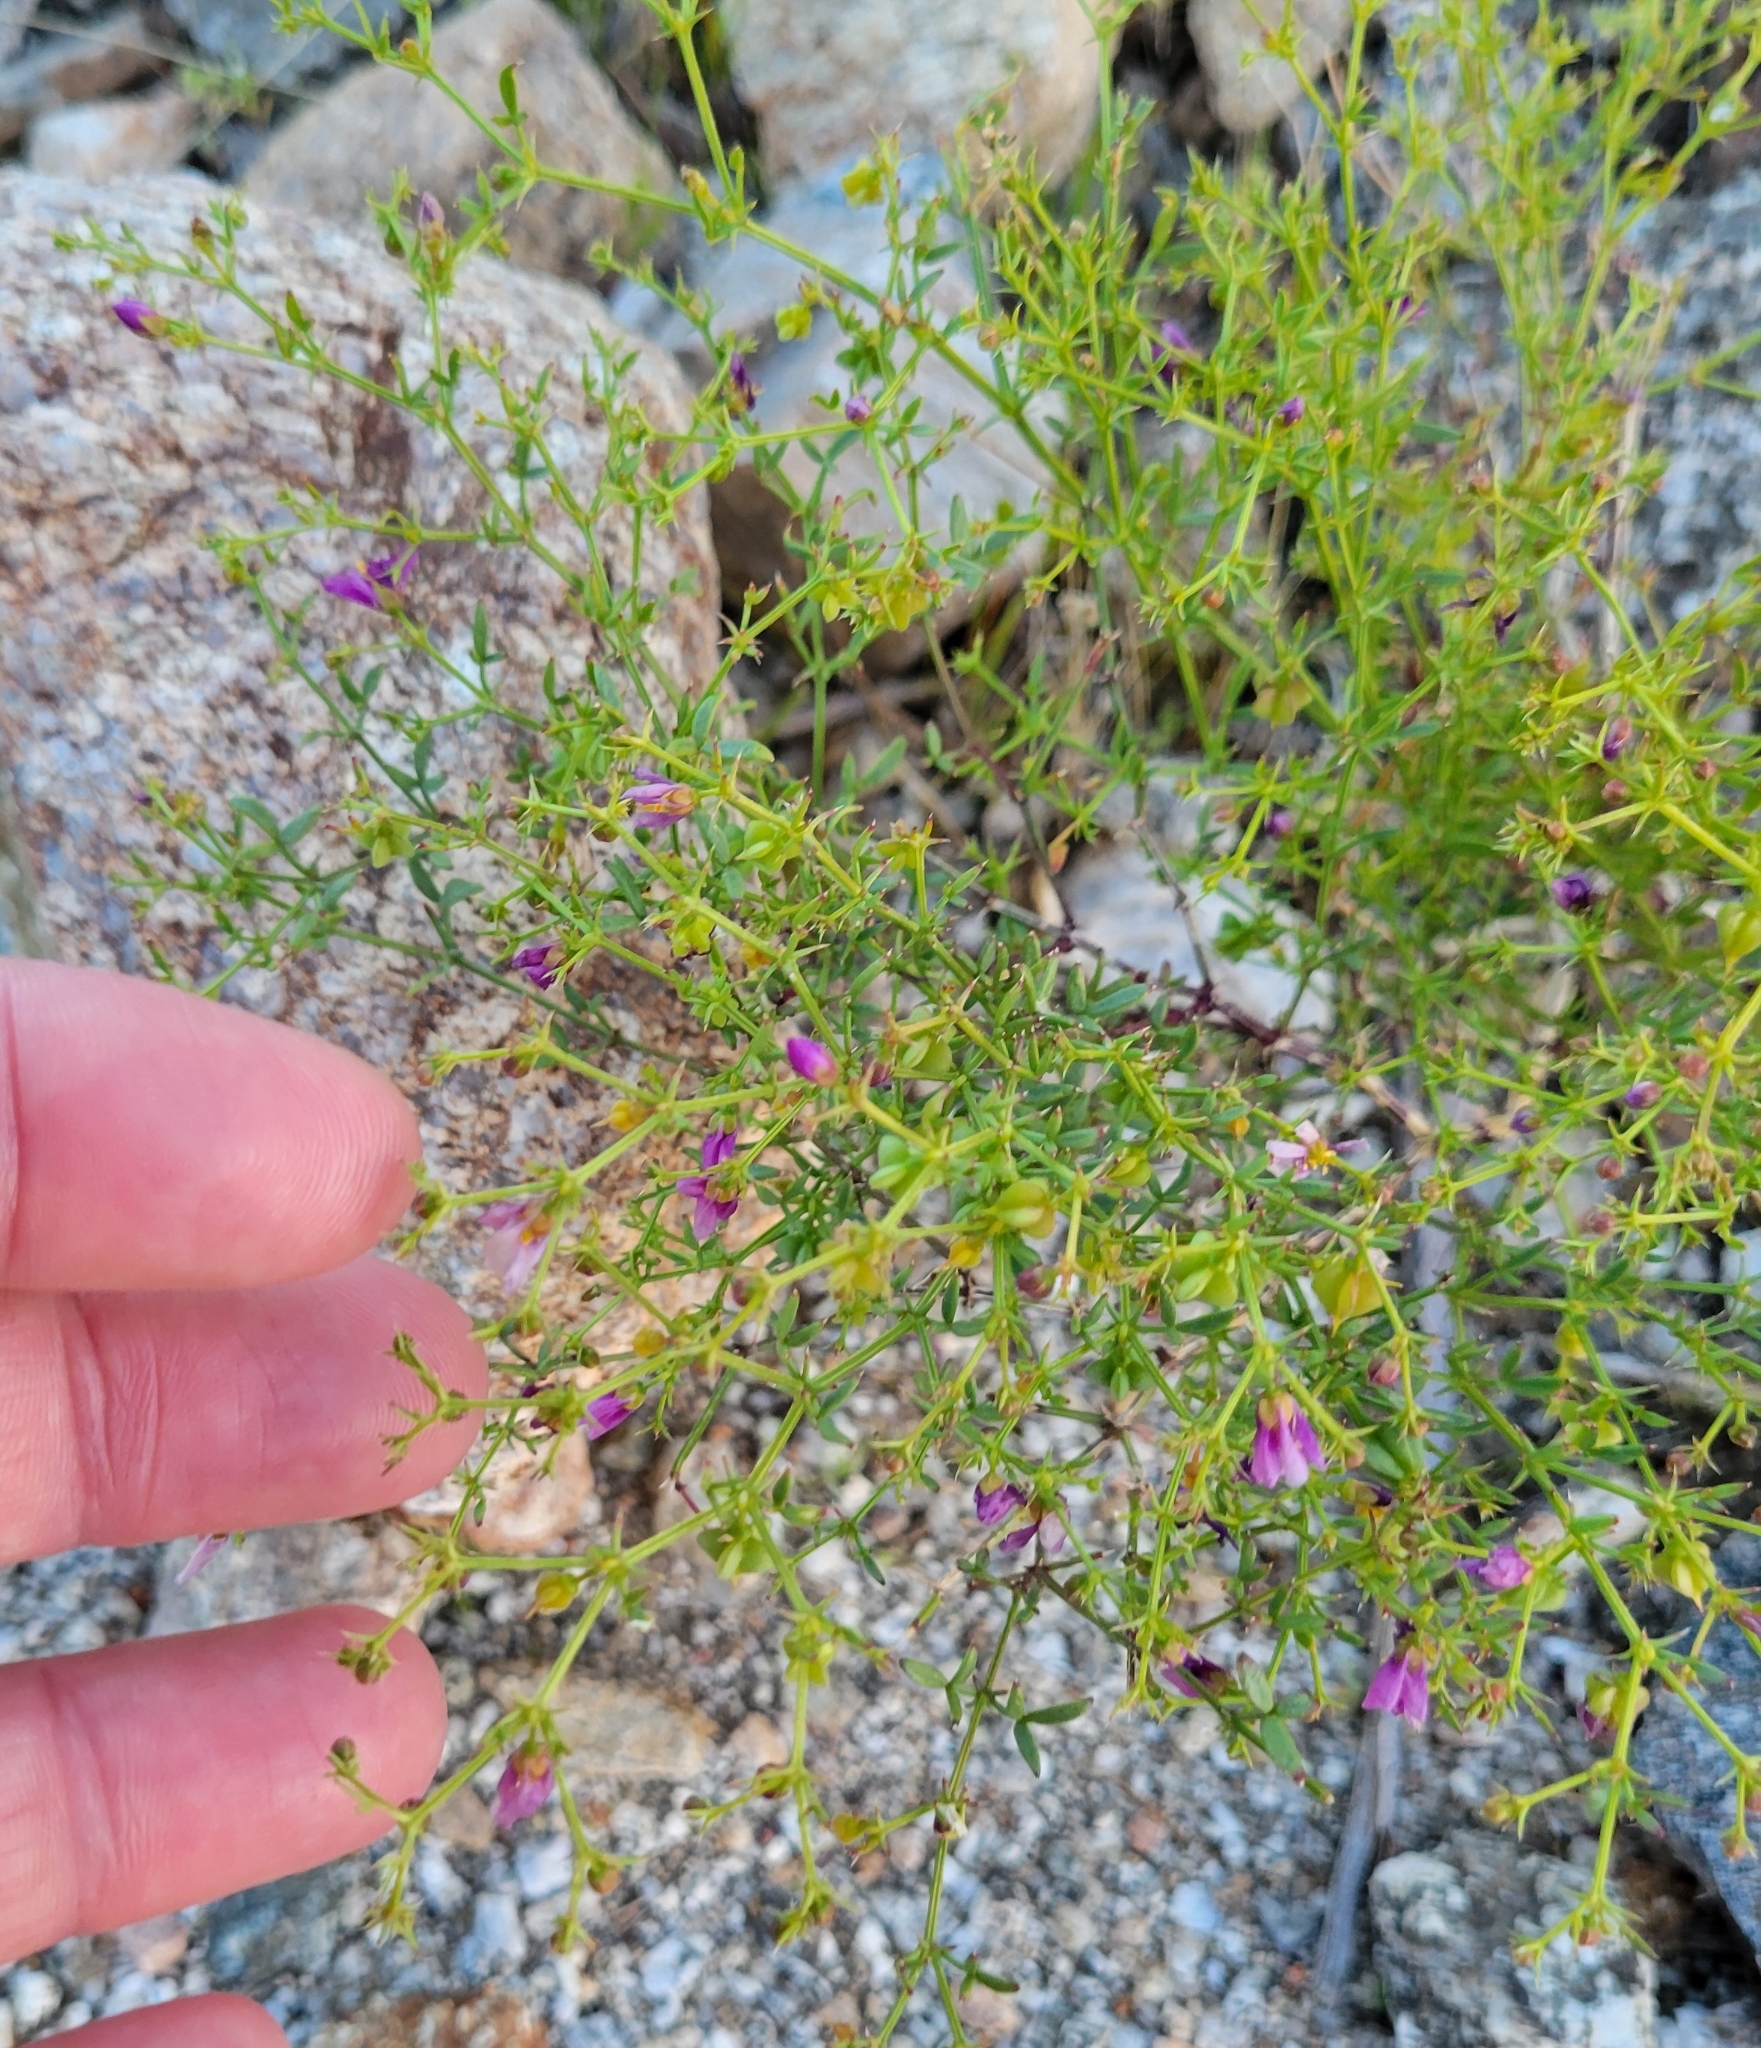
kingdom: Plantae
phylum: Tracheophyta
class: Magnoliopsida
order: Zygophyllales
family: Zygophyllaceae
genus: Fagonia
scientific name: Fagonia laevis
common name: California fagonbush
